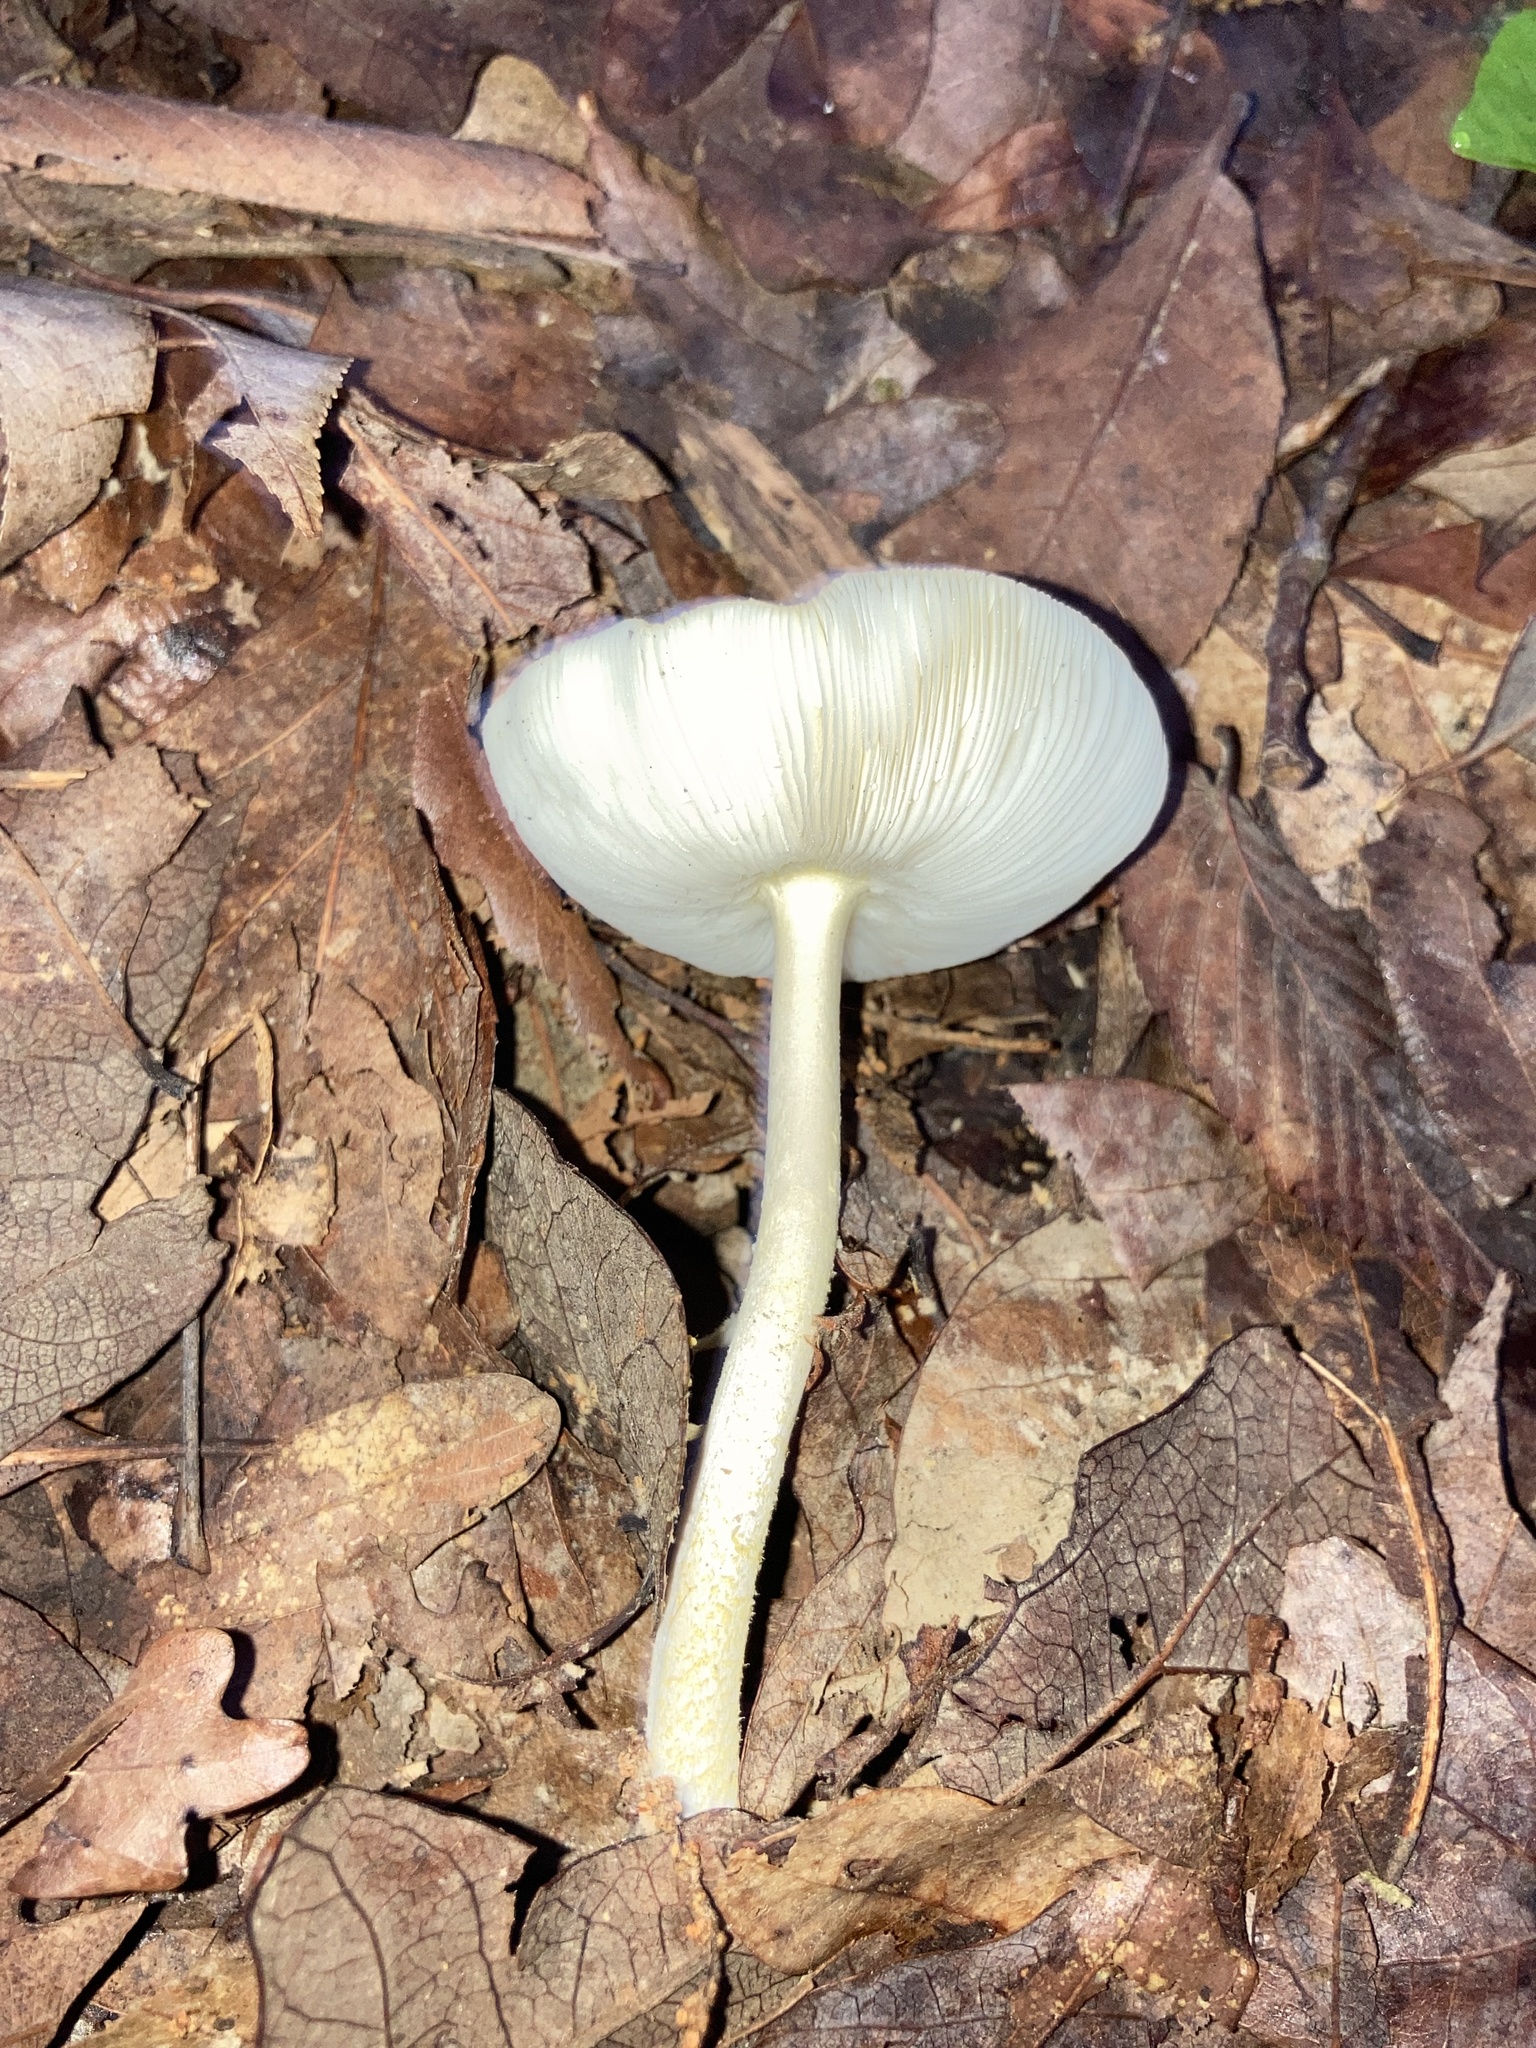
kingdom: Fungi
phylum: Basidiomycota
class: Agaricomycetes
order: Agaricales
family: Amanitaceae
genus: Amanita
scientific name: Amanita flavoconia
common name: Yellow patches
